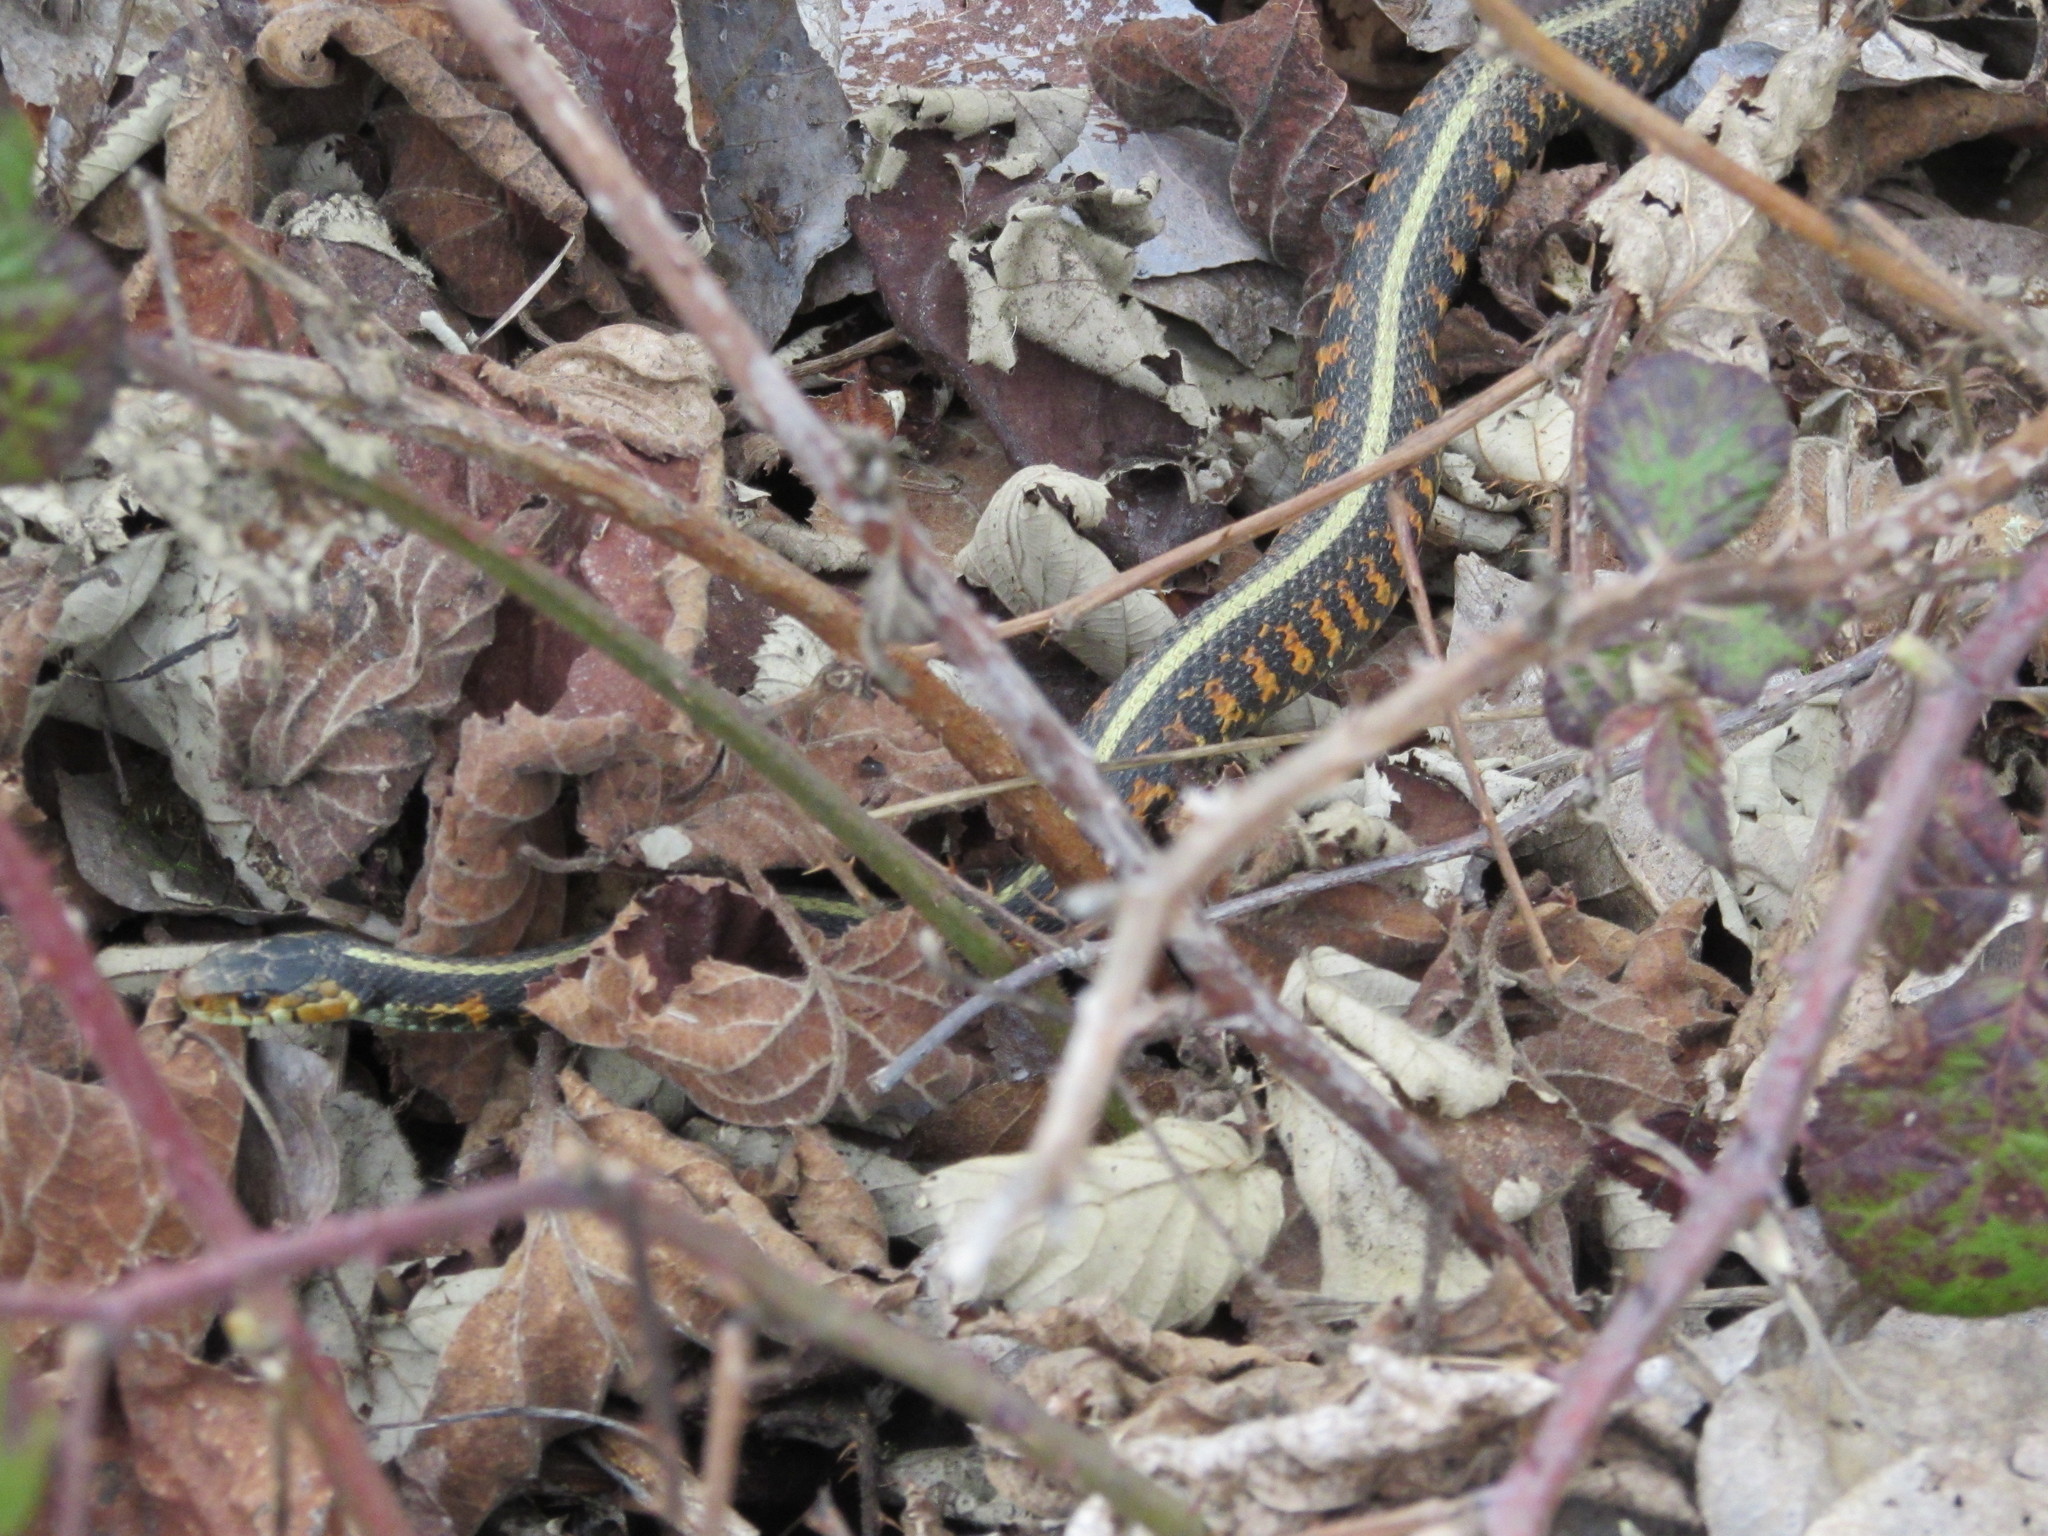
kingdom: Animalia
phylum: Chordata
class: Squamata
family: Colubridae
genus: Thamnophis
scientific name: Thamnophis sirtalis
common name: Common garter snake
